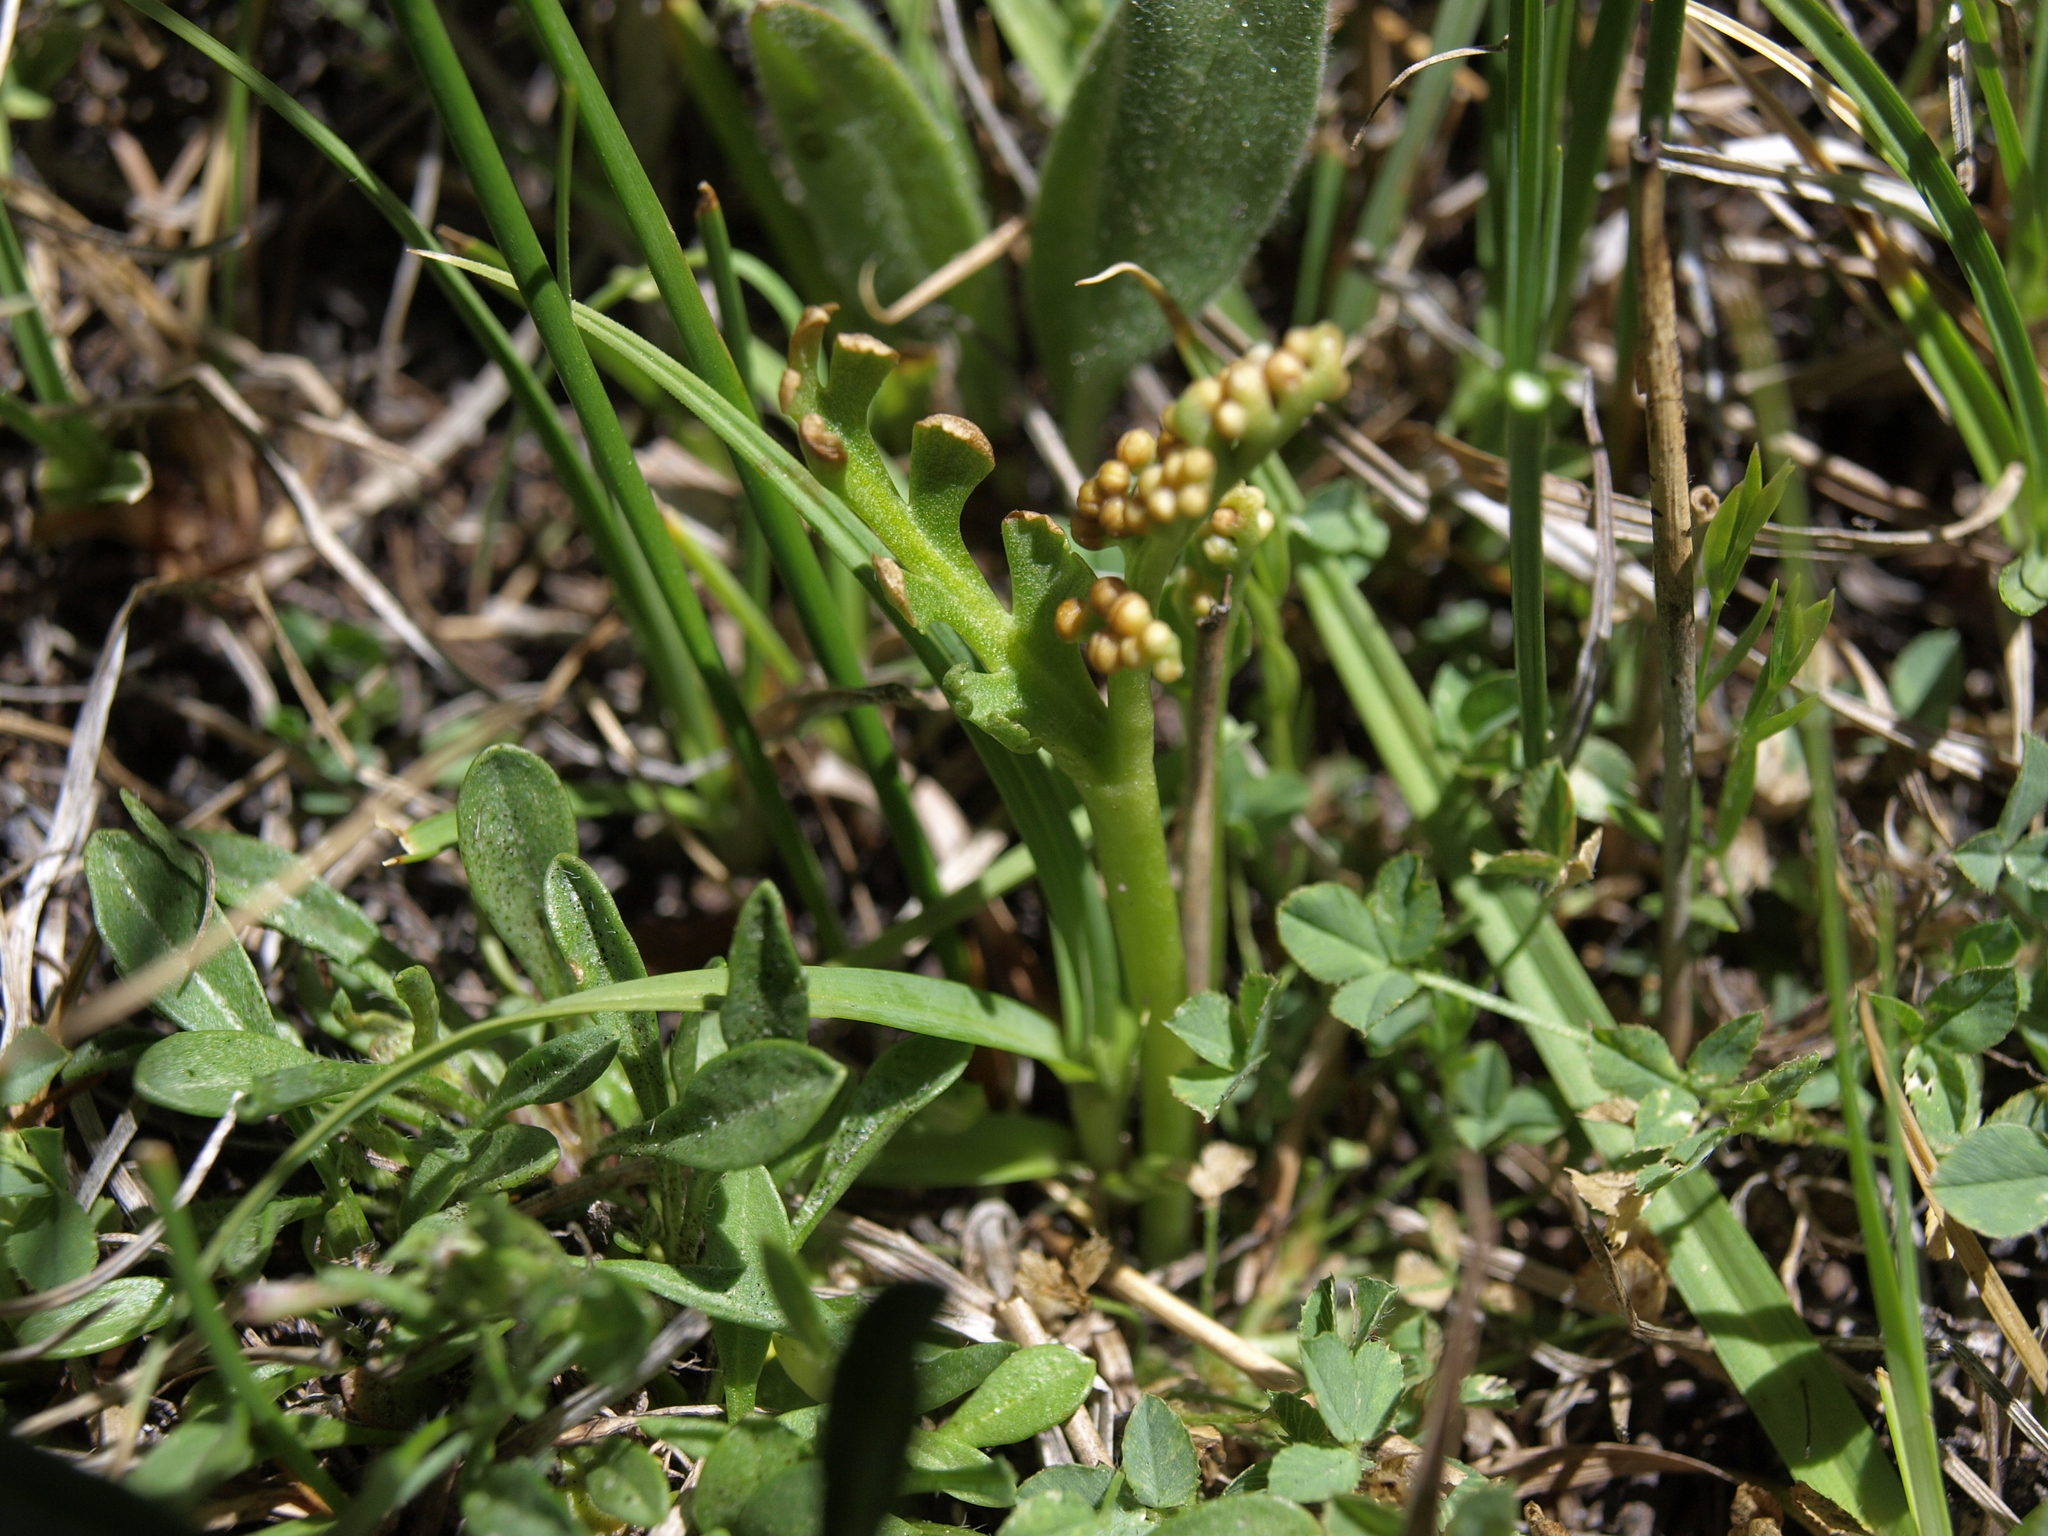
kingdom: Plantae
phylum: Tracheophyta
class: Polypodiopsida
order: Ophioglossales
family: Ophioglossaceae
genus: Botrychium
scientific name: Botrychium ascendens
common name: Ascending grapefern
